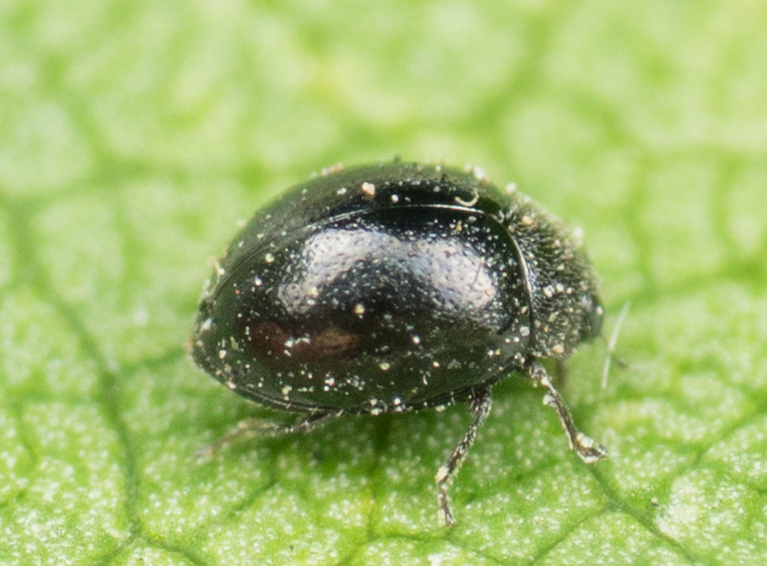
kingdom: Animalia
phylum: Arthropoda
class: Insecta
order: Coleoptera
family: Coccinellidae
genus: Zilus
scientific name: Zilus aterrimus
